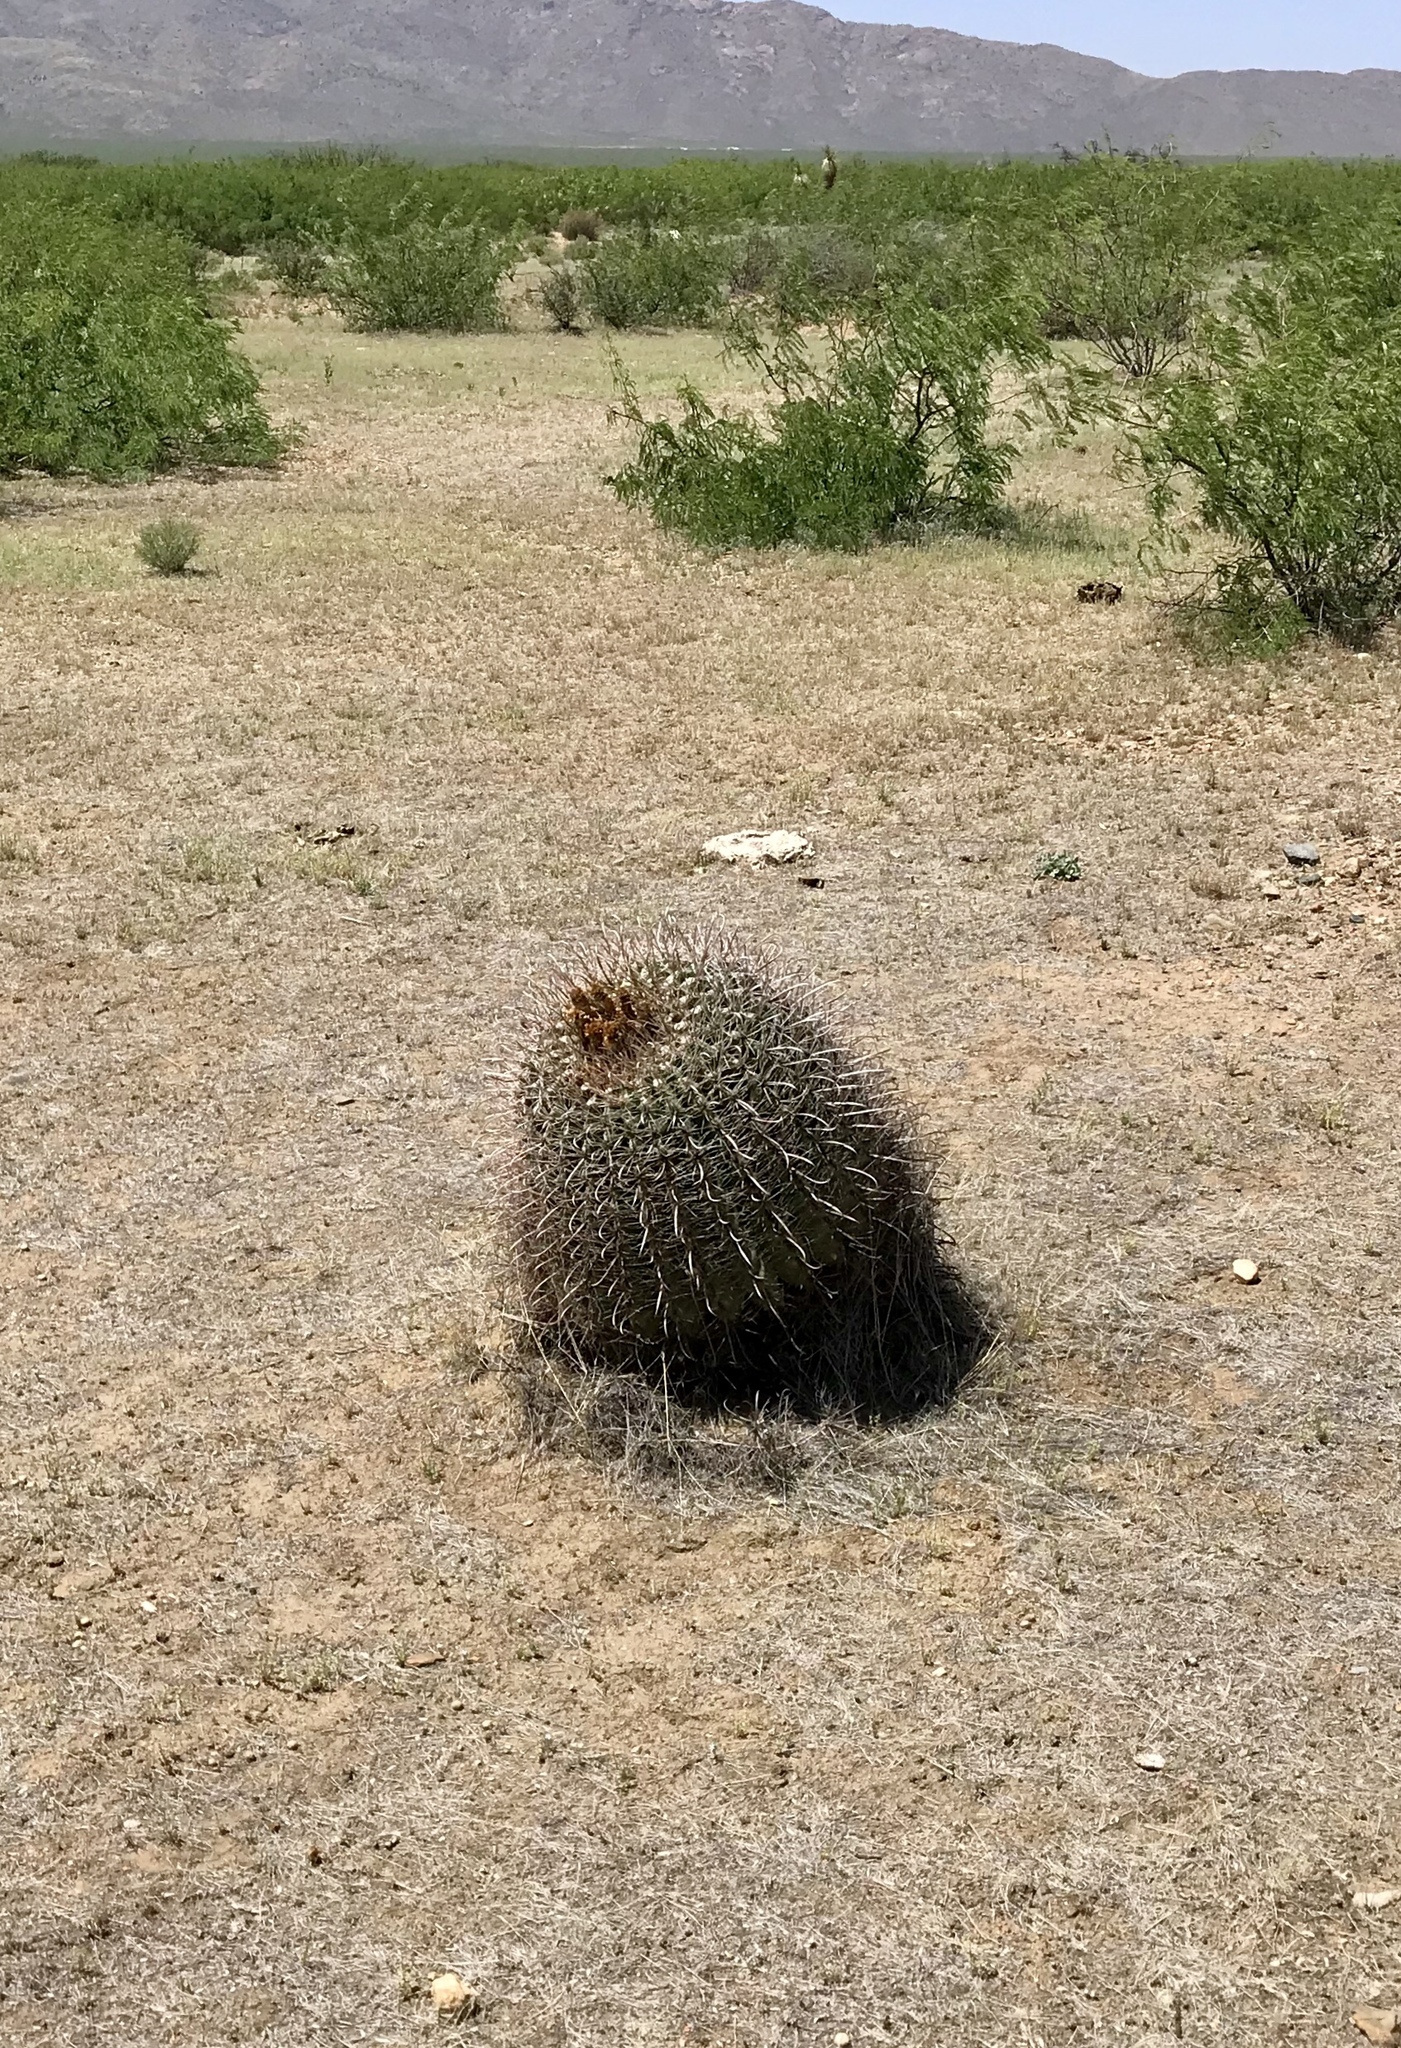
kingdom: Plantae
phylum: Tracheophyta
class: Magnoliopsida
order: Caryophyllales
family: Cactaceae
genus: Ferocactus
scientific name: Ferocactus wislizeni
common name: Candy barrel cactus
